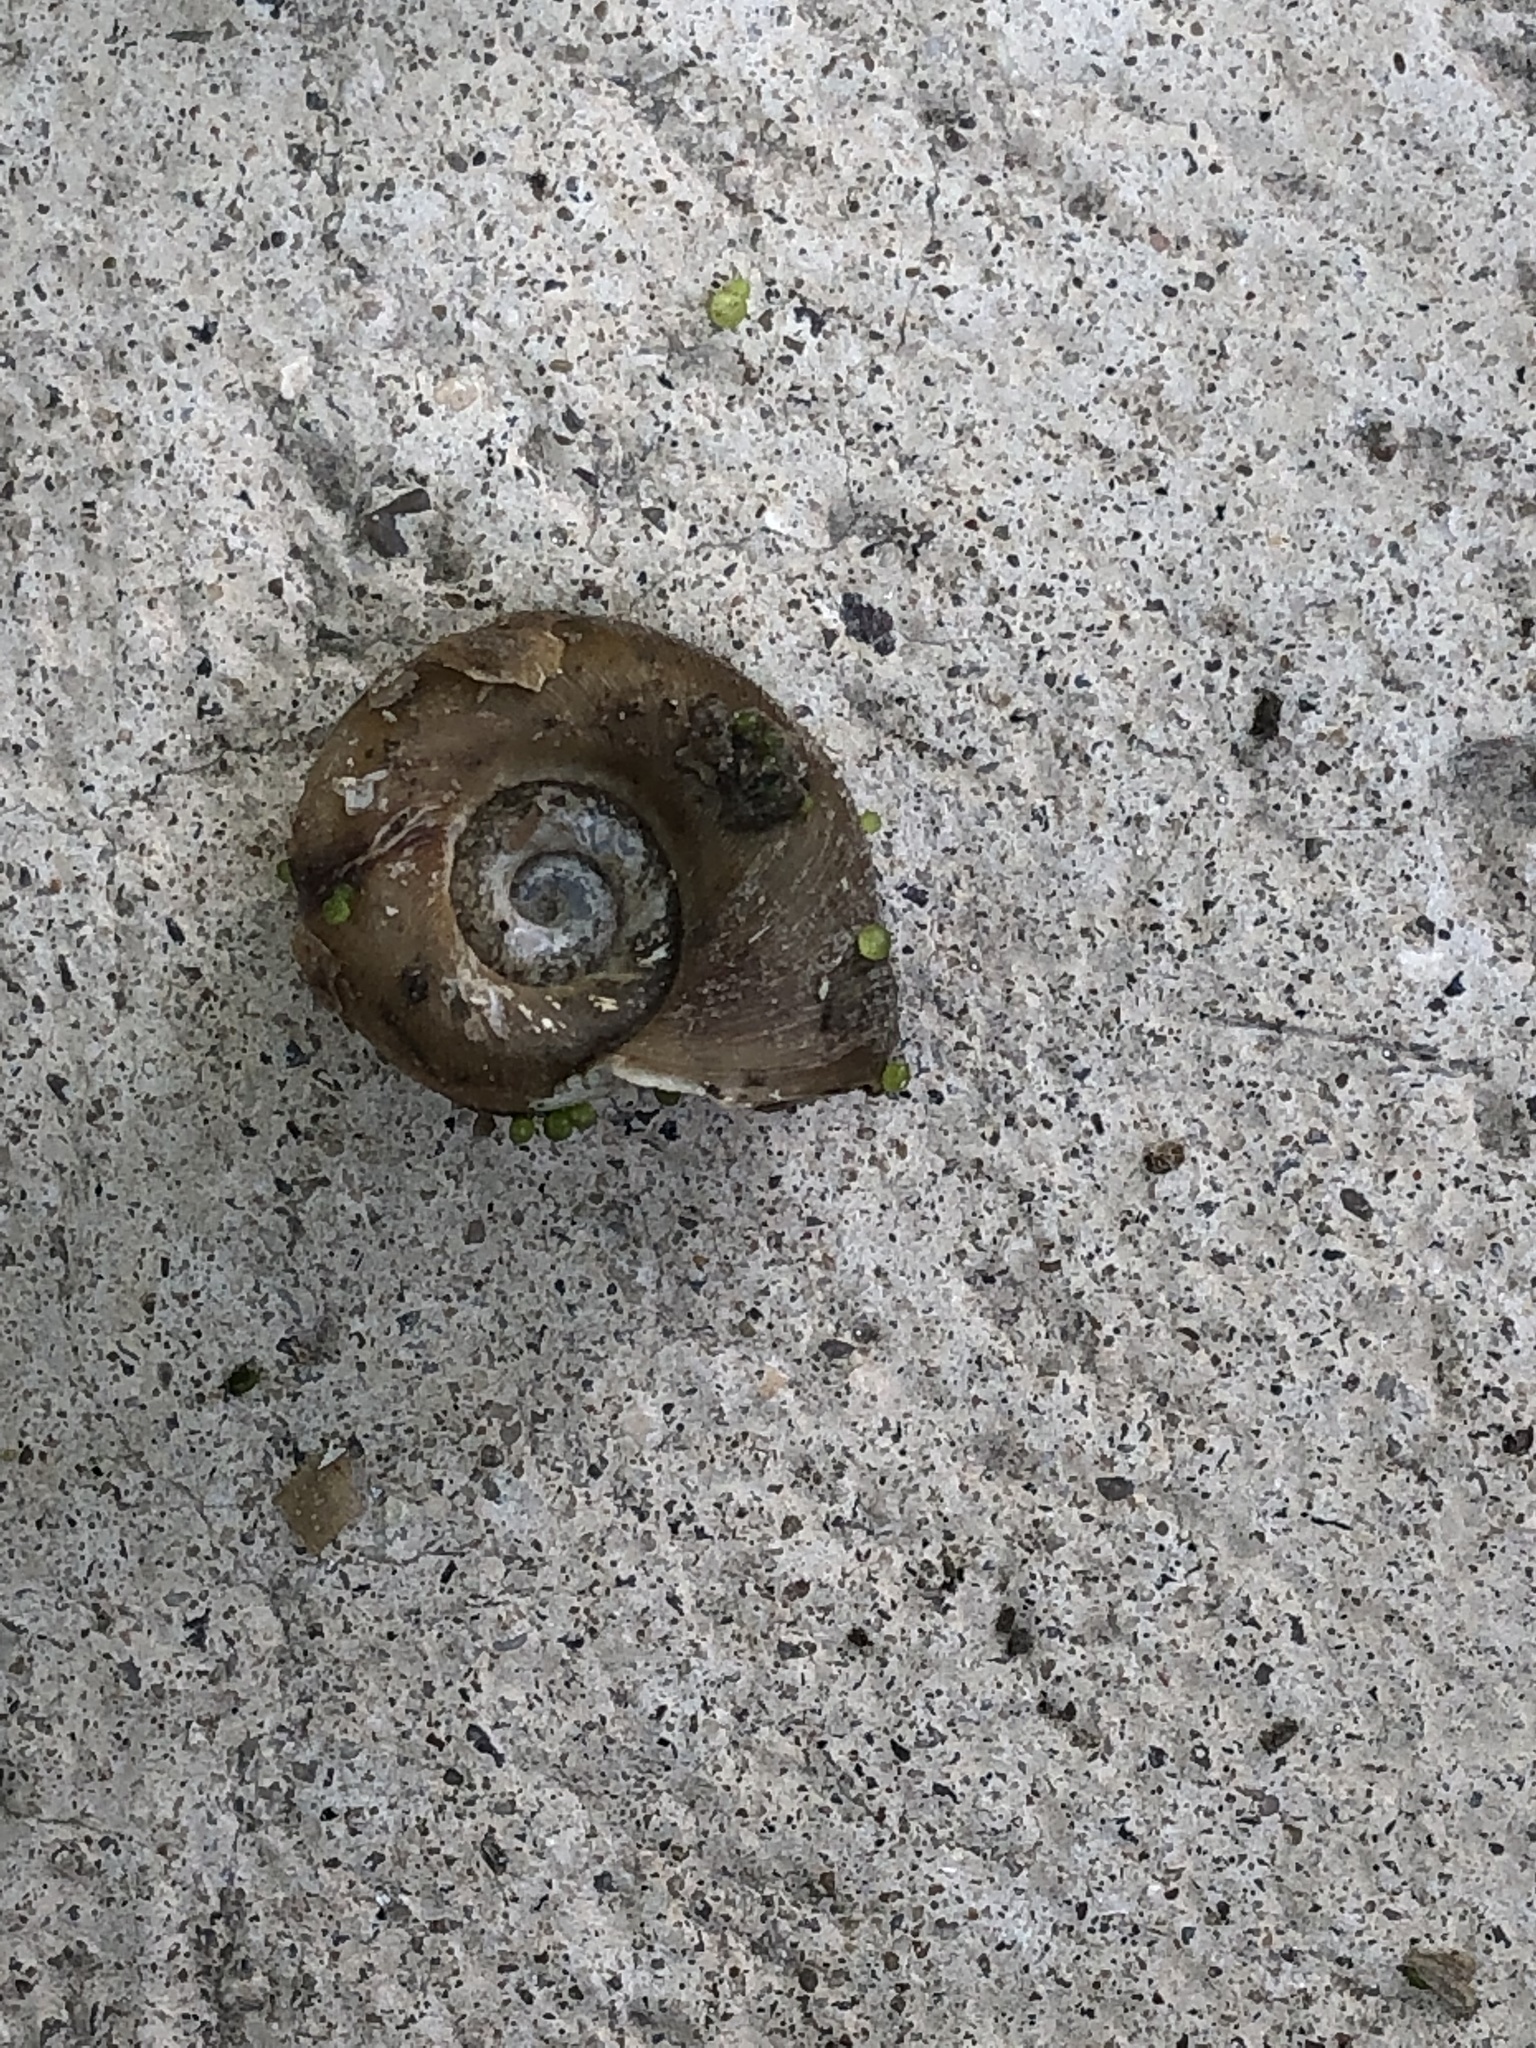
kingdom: Animalia
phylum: Mollusca
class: Gastropoda
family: Planorbidae
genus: Planorbella
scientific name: Planorbella trivolvis
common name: Marsh rams-horn
